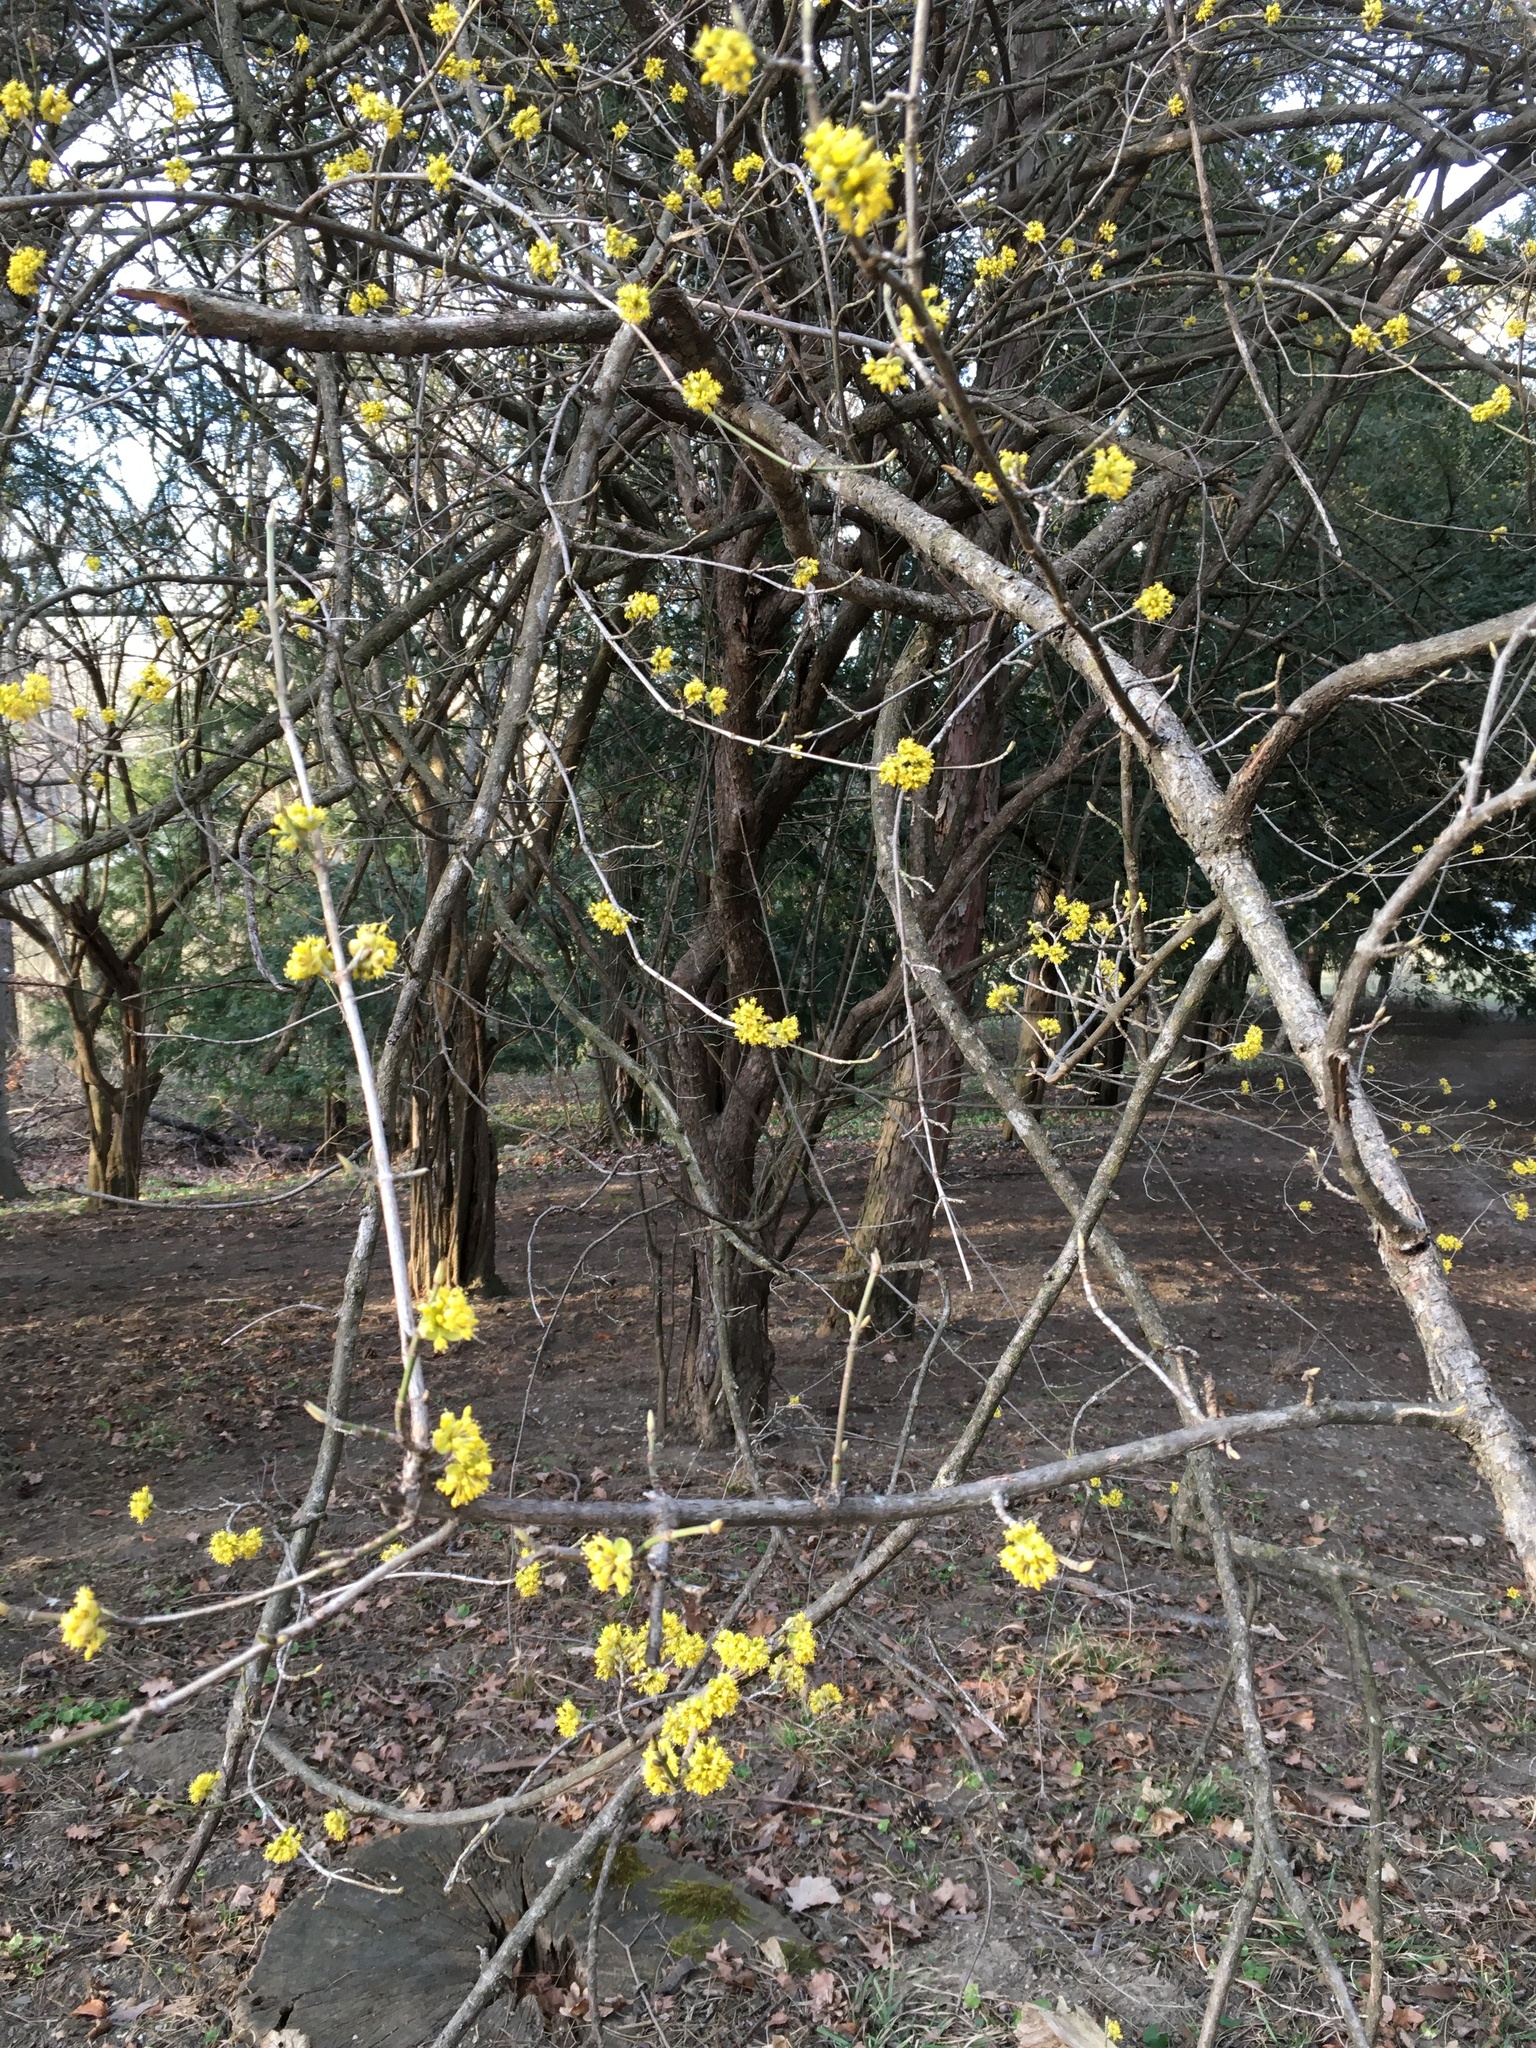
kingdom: Plantae
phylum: Tracheophyta
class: Magnoliopsida
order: Cornales
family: Cornaceae
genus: Cornus
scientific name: Cornus mas
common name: Cornelian-cherry
